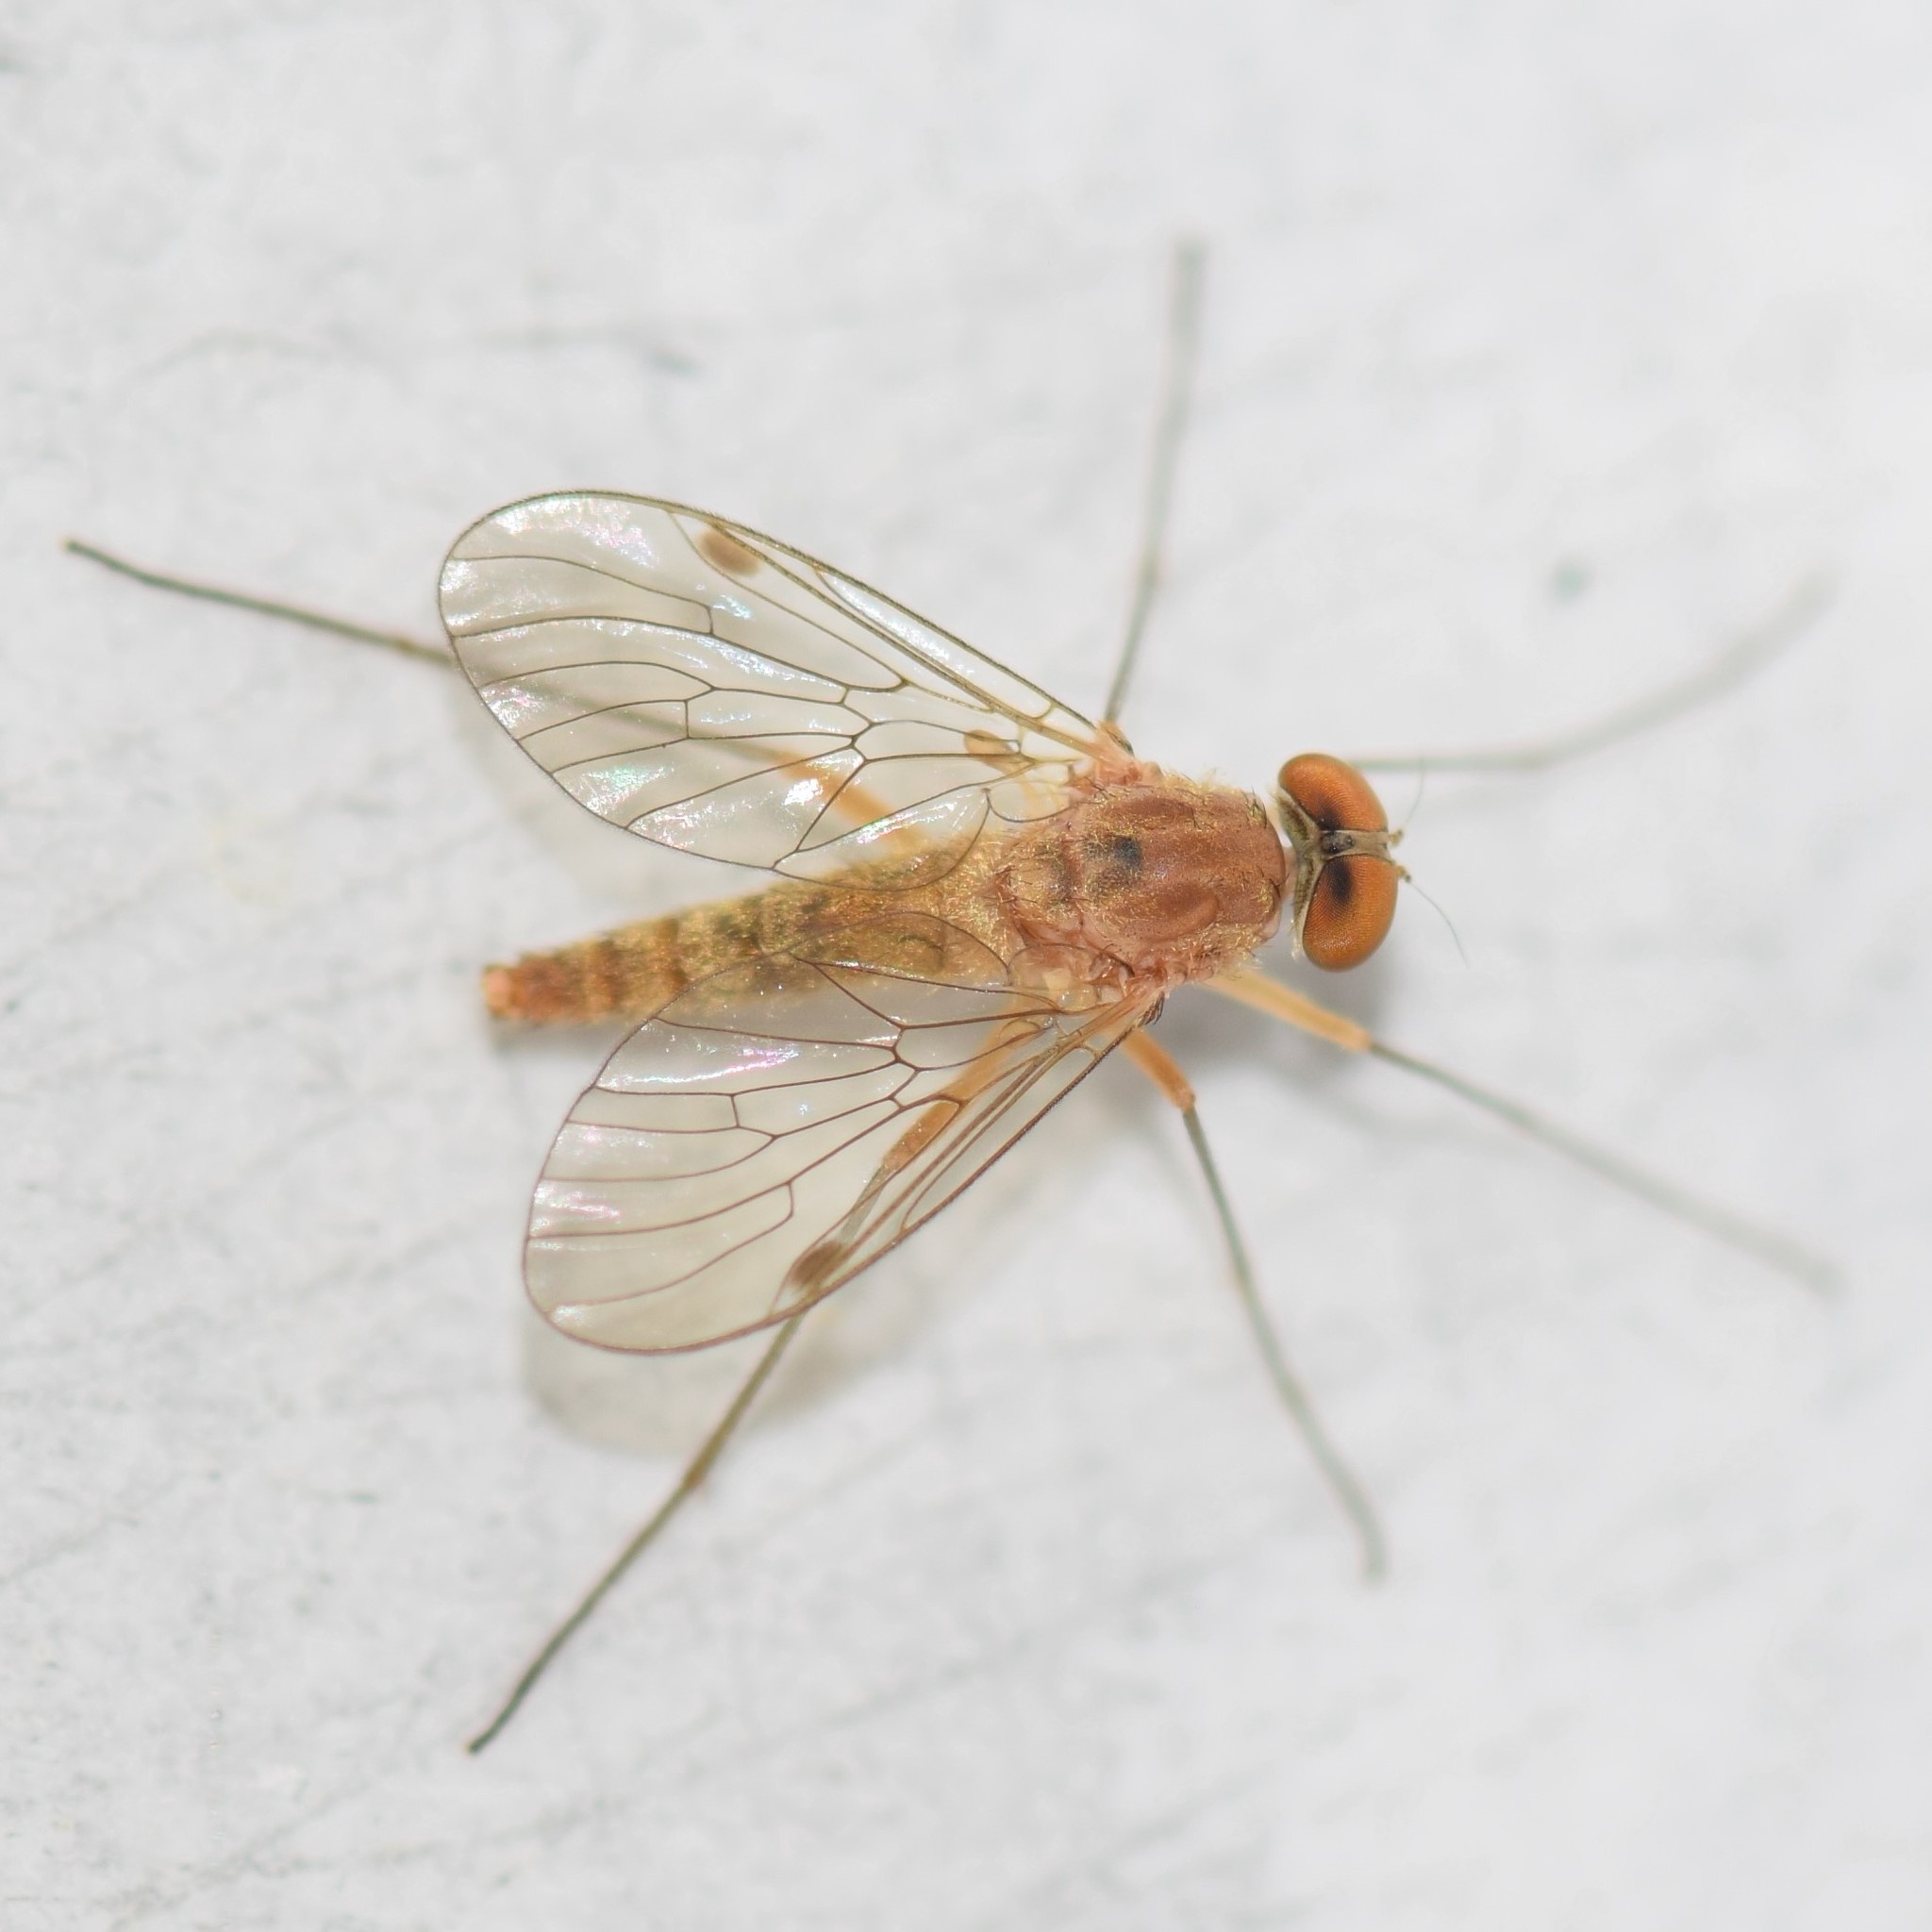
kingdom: Animalia
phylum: Arthropoda
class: Insecta
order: Diptera
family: Rhagionidae
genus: Chrysopilus
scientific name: Chrysopilus rotundipennis
